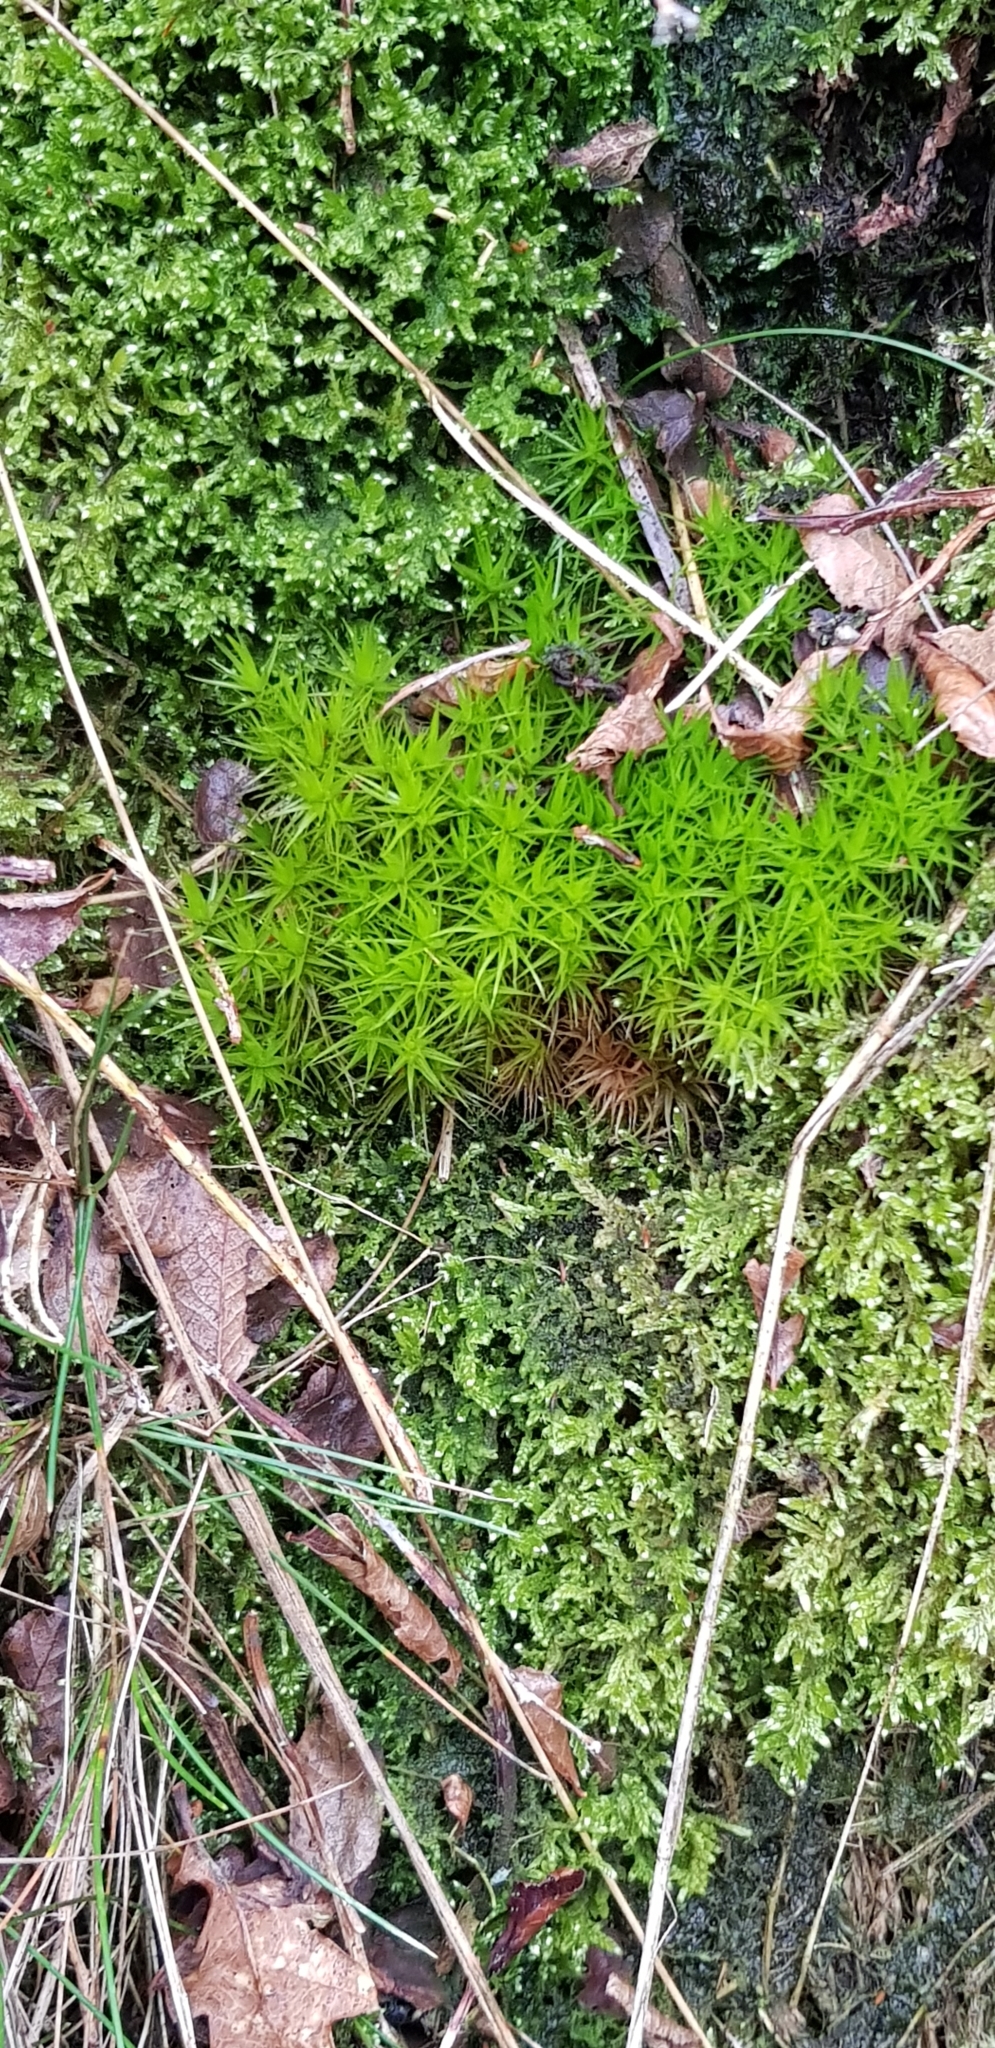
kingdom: Plantae
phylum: Bryophyta
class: Bryopsida
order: Dicranales
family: Dicranaceae
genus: Dicranum
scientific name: Dicranum scoparium
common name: Broom fork-moss
